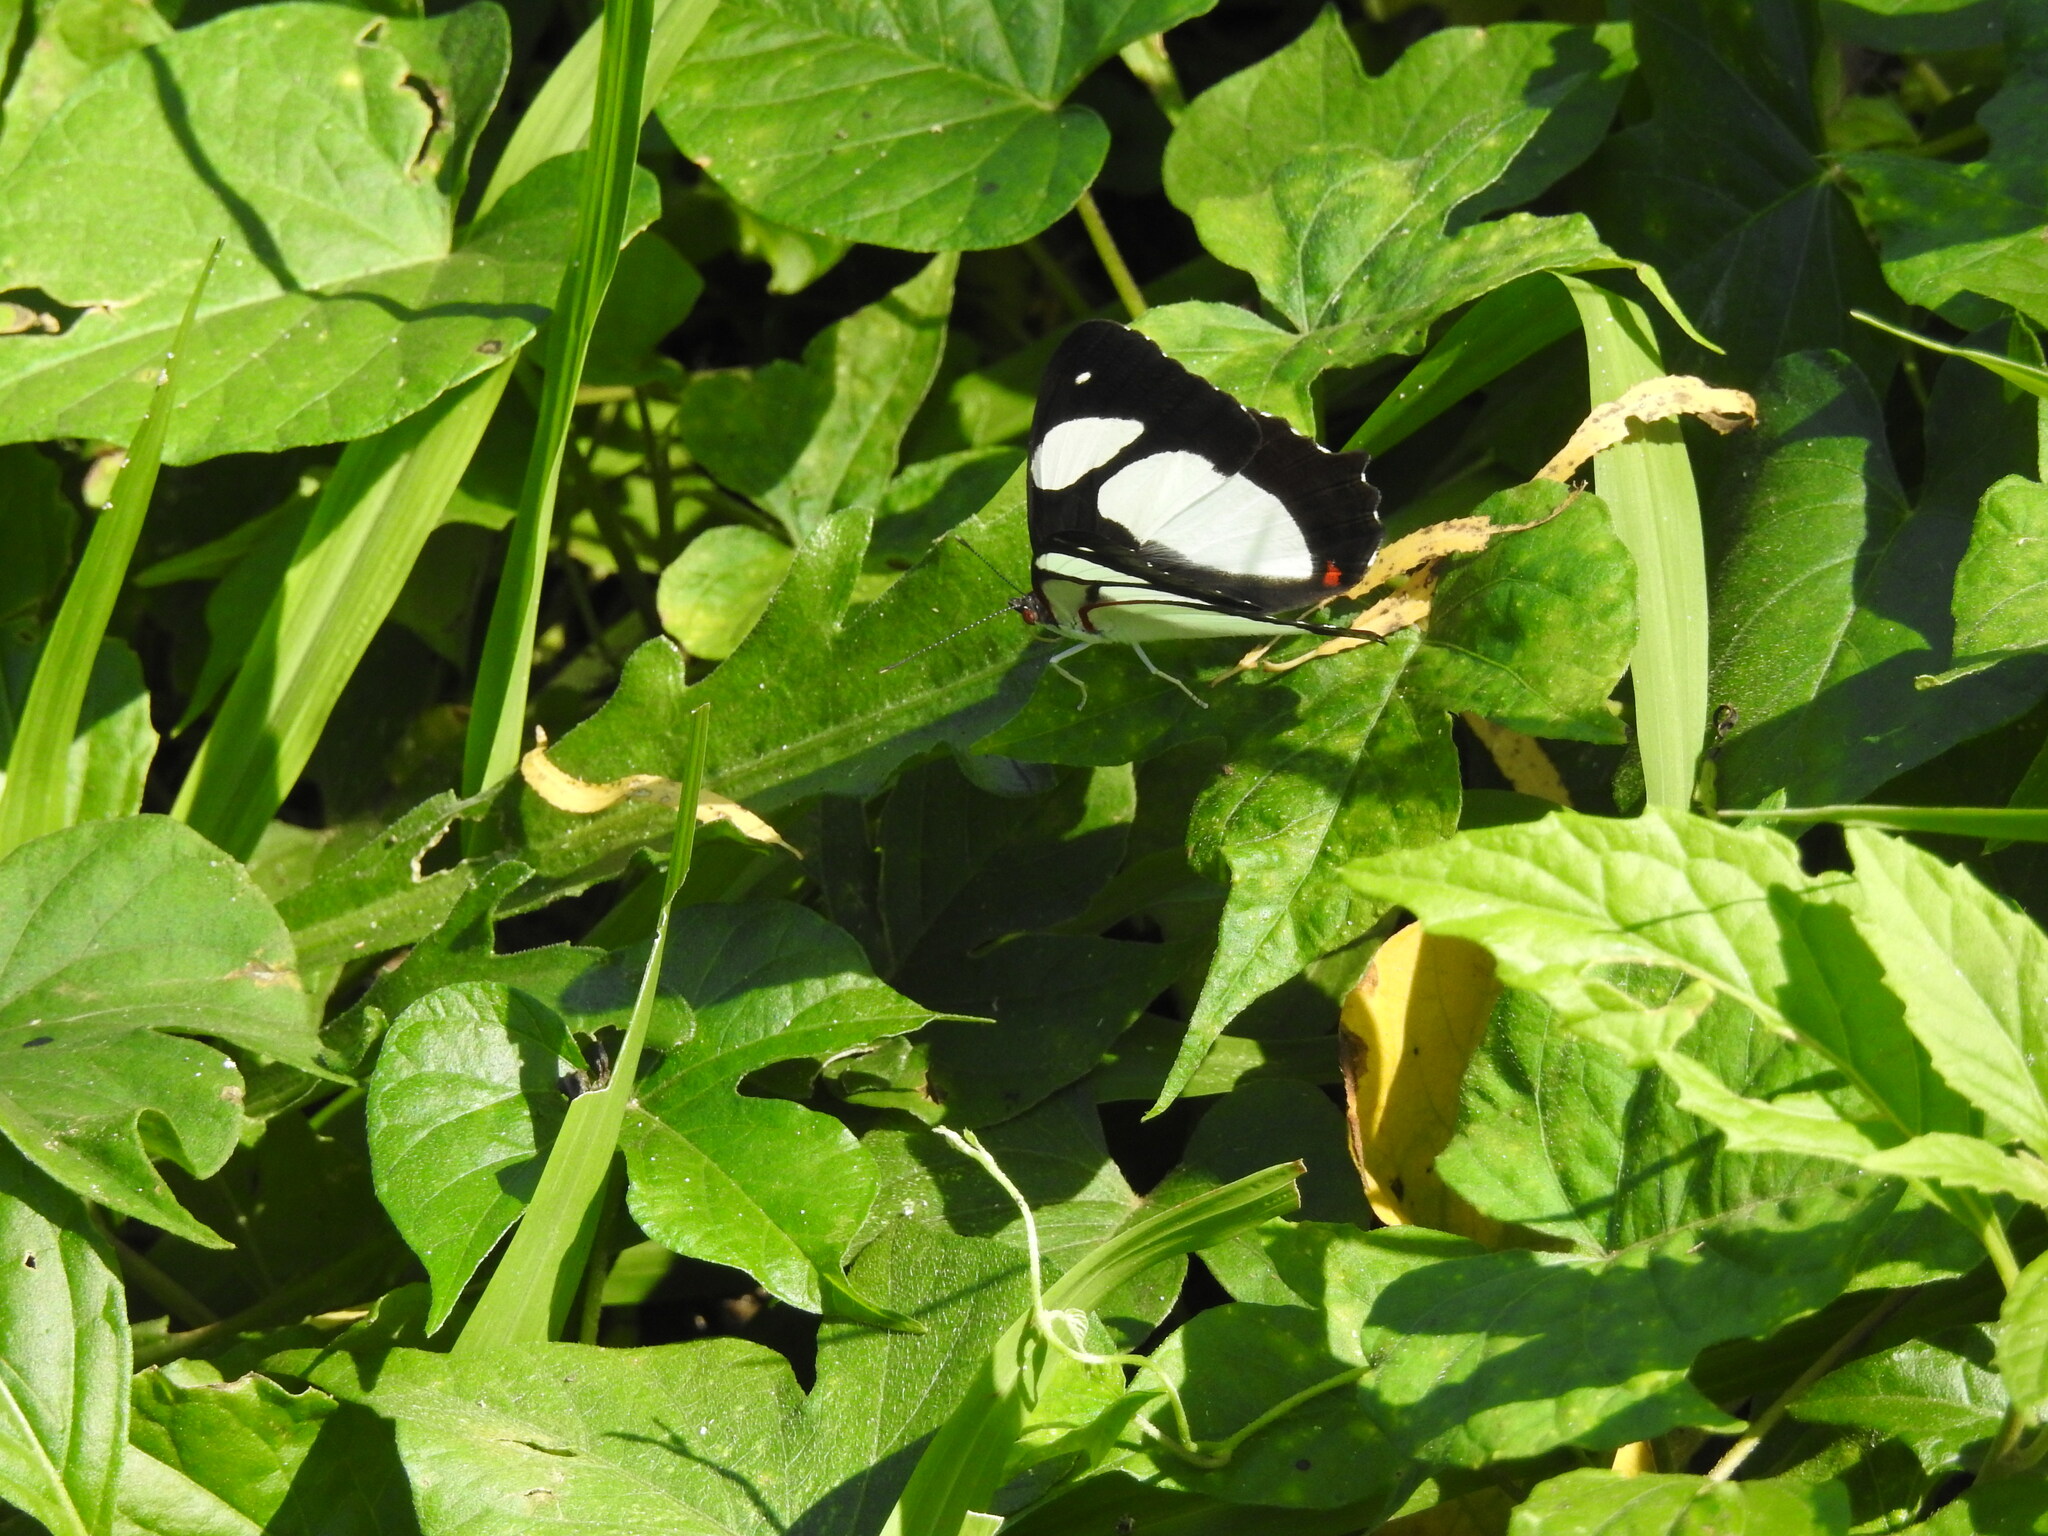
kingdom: Animalia
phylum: Arthropoda
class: Insecta
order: Lepidoptera
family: Nymphalidae
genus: Pyrrhogyra
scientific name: Pyrrhogyra neaerea
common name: Leading red-ring
